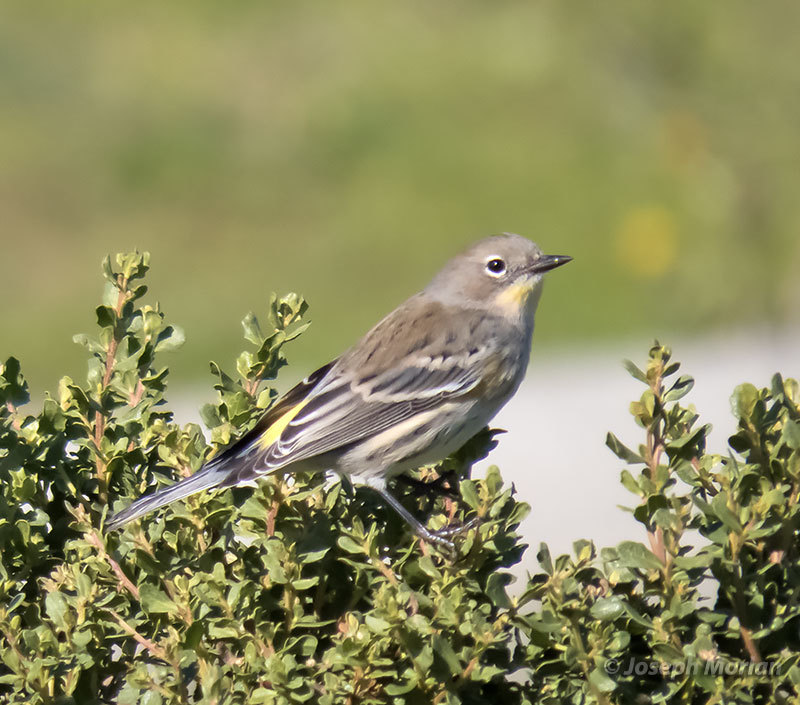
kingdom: Animalia
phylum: Chordata
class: Aves
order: Passeriformes
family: Parulidae
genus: Setophaga
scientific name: Setophaga coronata
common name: Myrtle warbler
